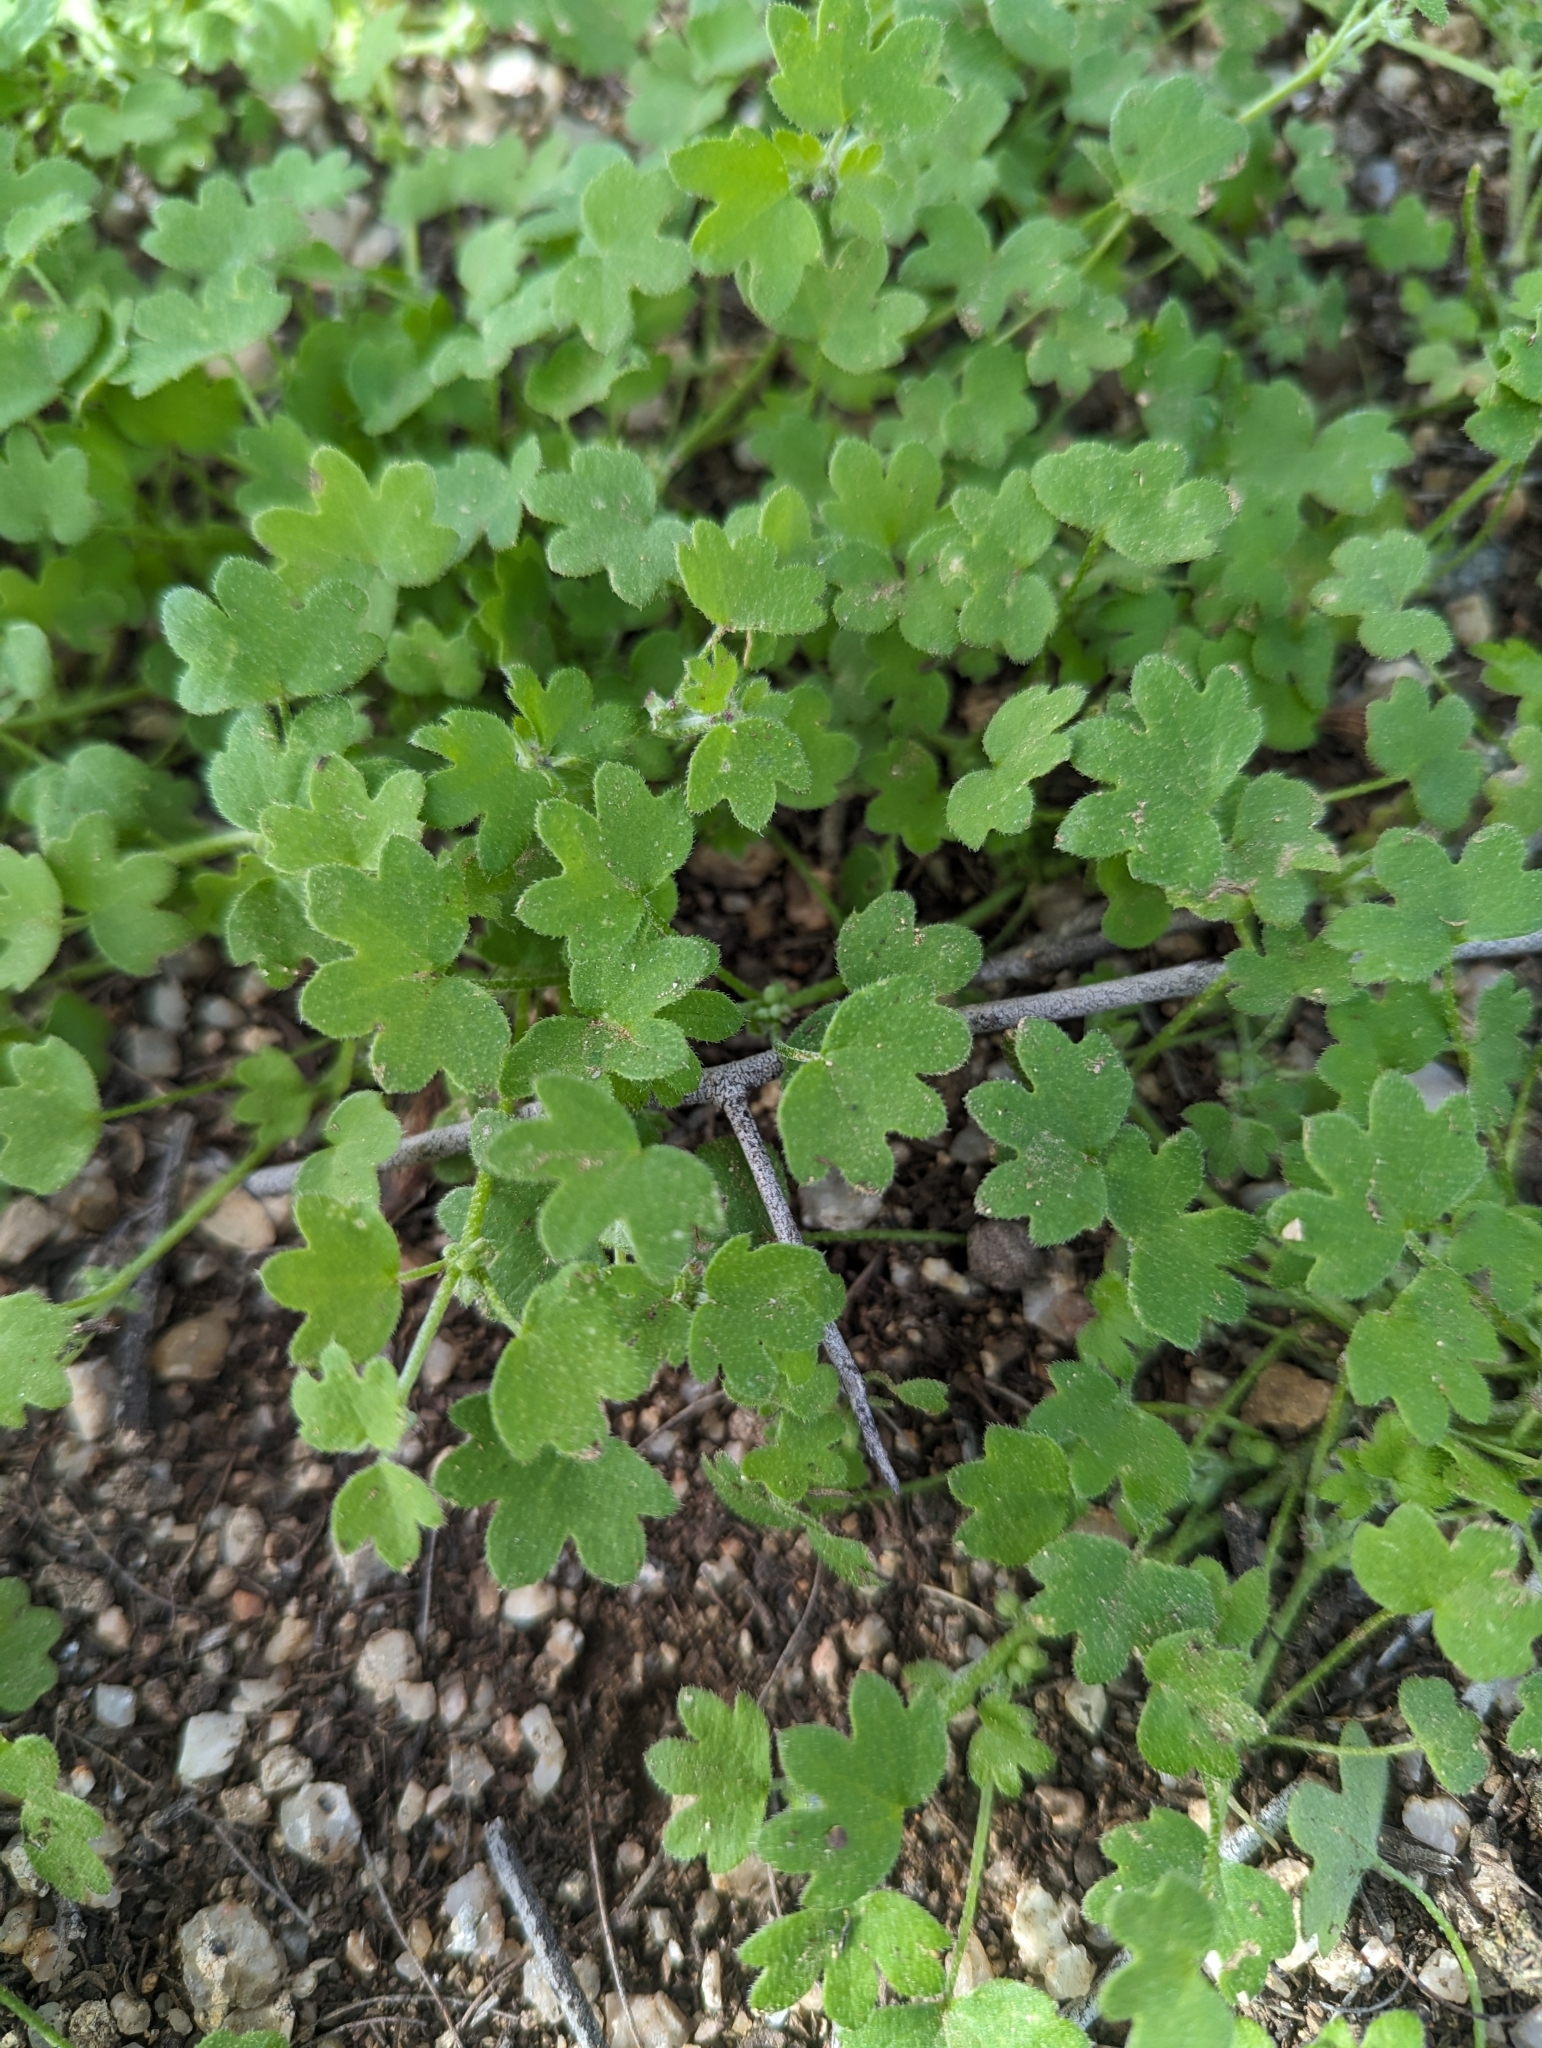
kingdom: Plantae
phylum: Tracheophyta
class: Magnoliopsida
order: Apiales
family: Apiaceae
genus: Bowlesia
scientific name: Bowlesia incana
